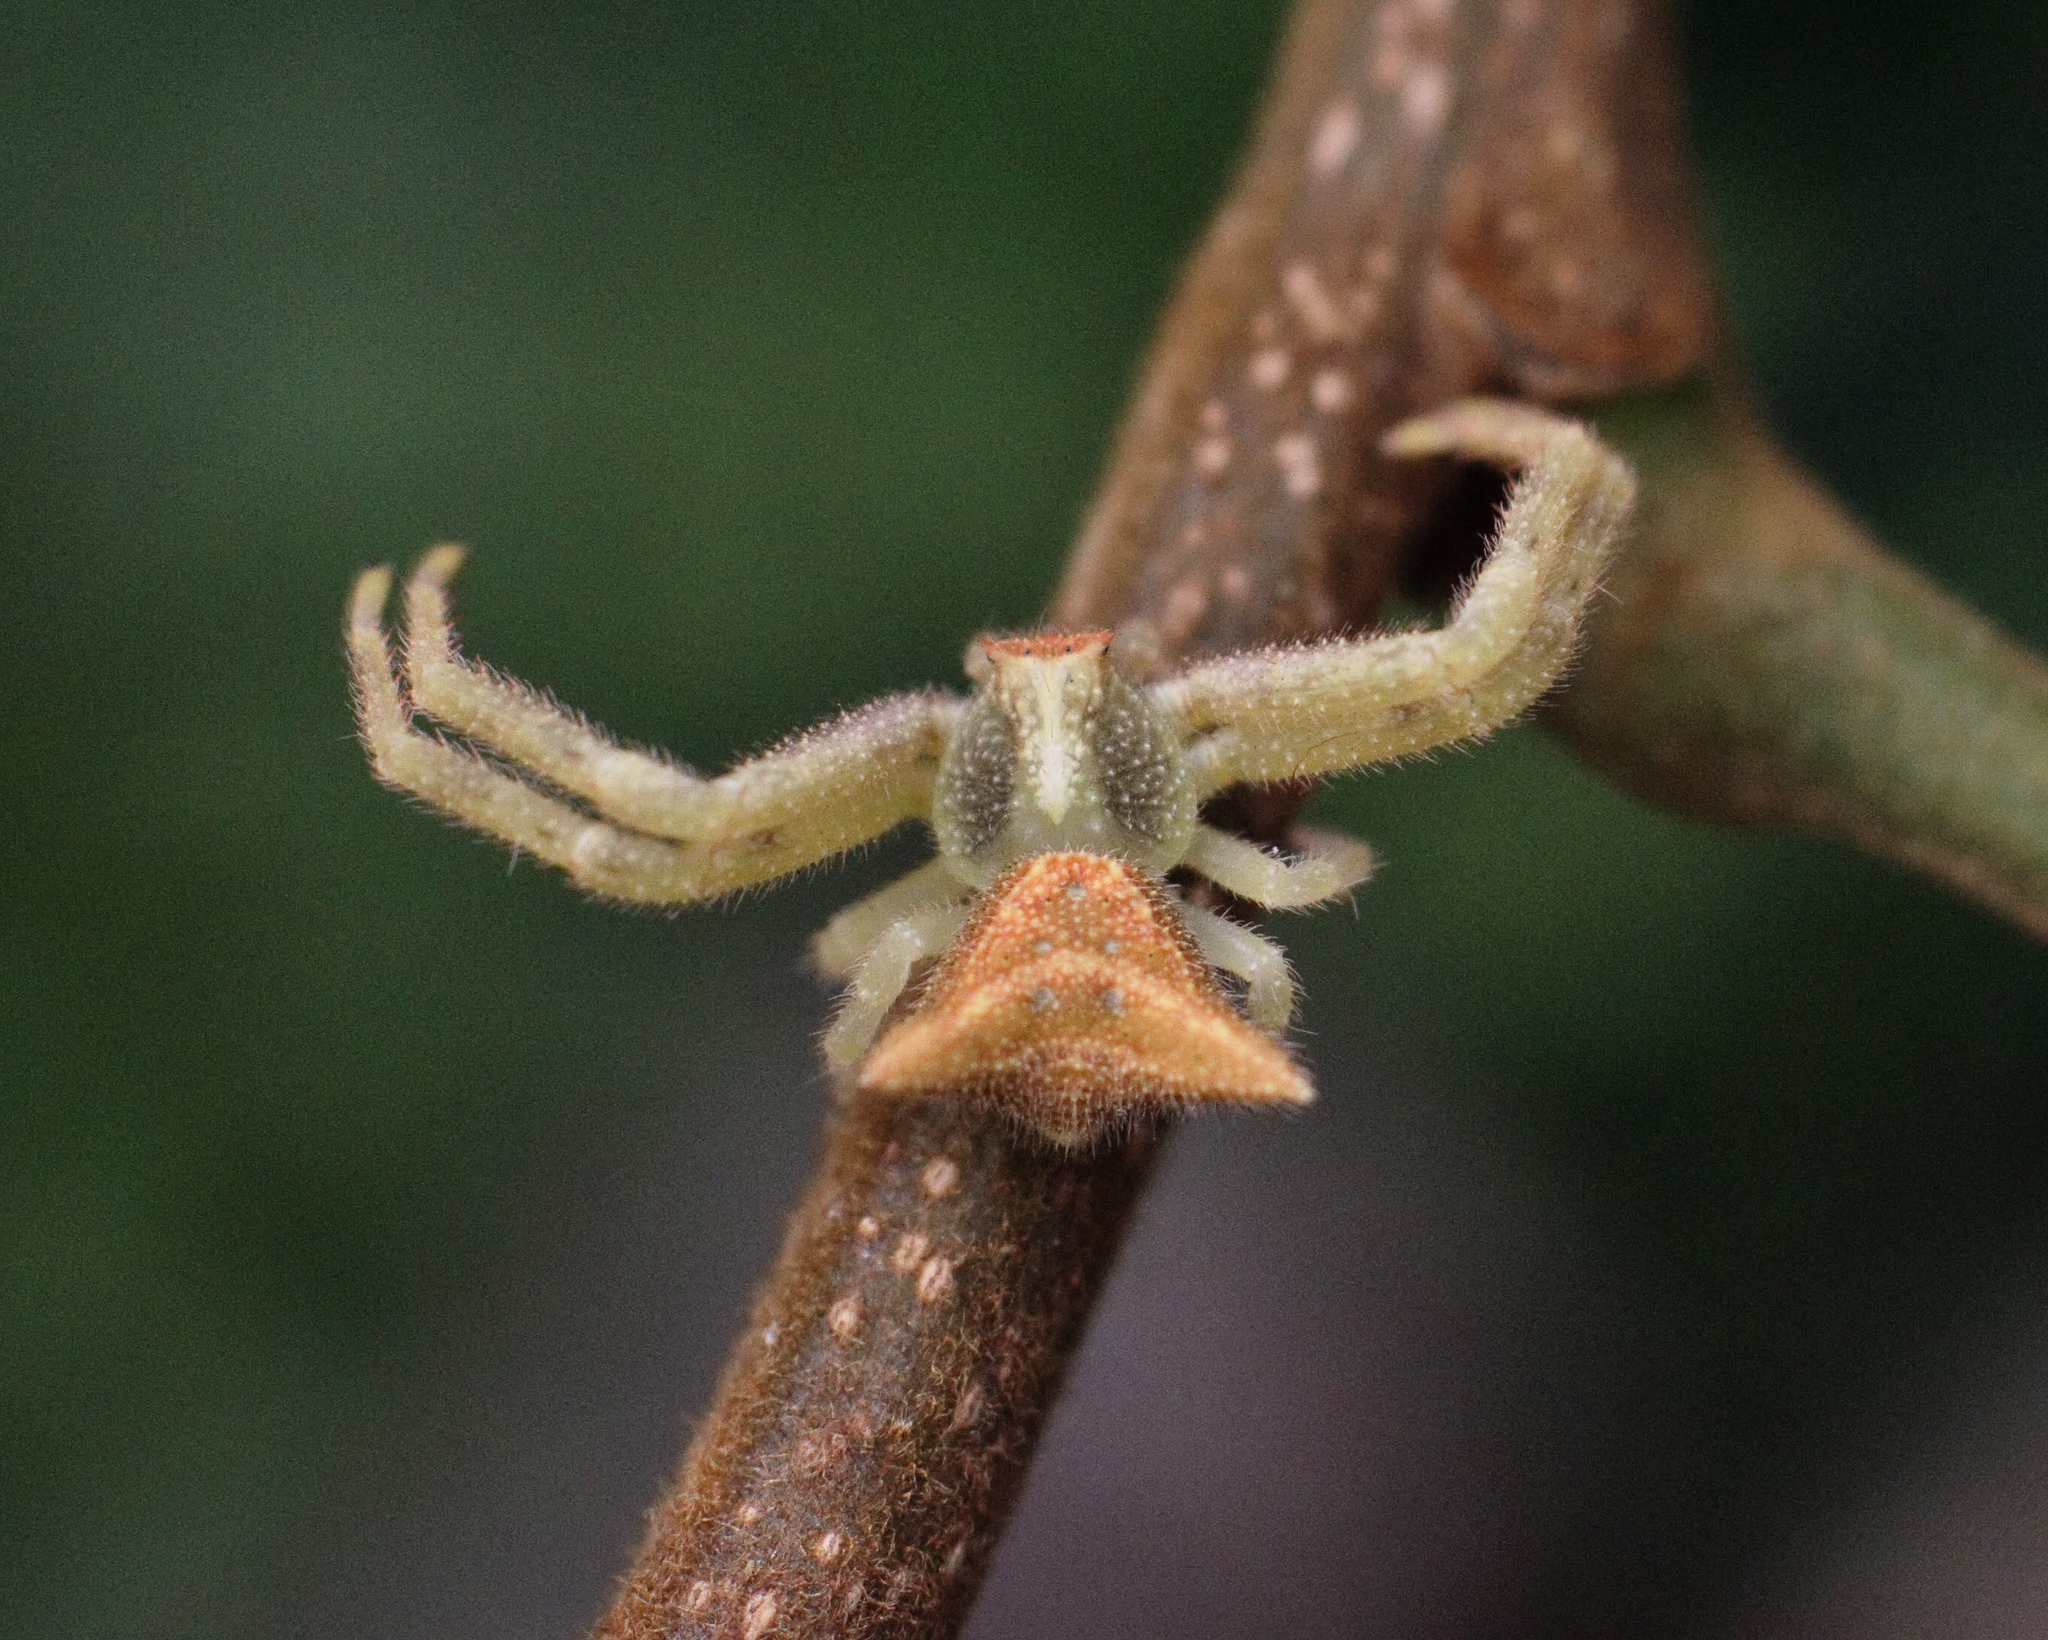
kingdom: Animalia
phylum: Arthropoda
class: Arachnida
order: Araneae
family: Thomisidae
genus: Thomisus
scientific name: Thomisus granulatus
